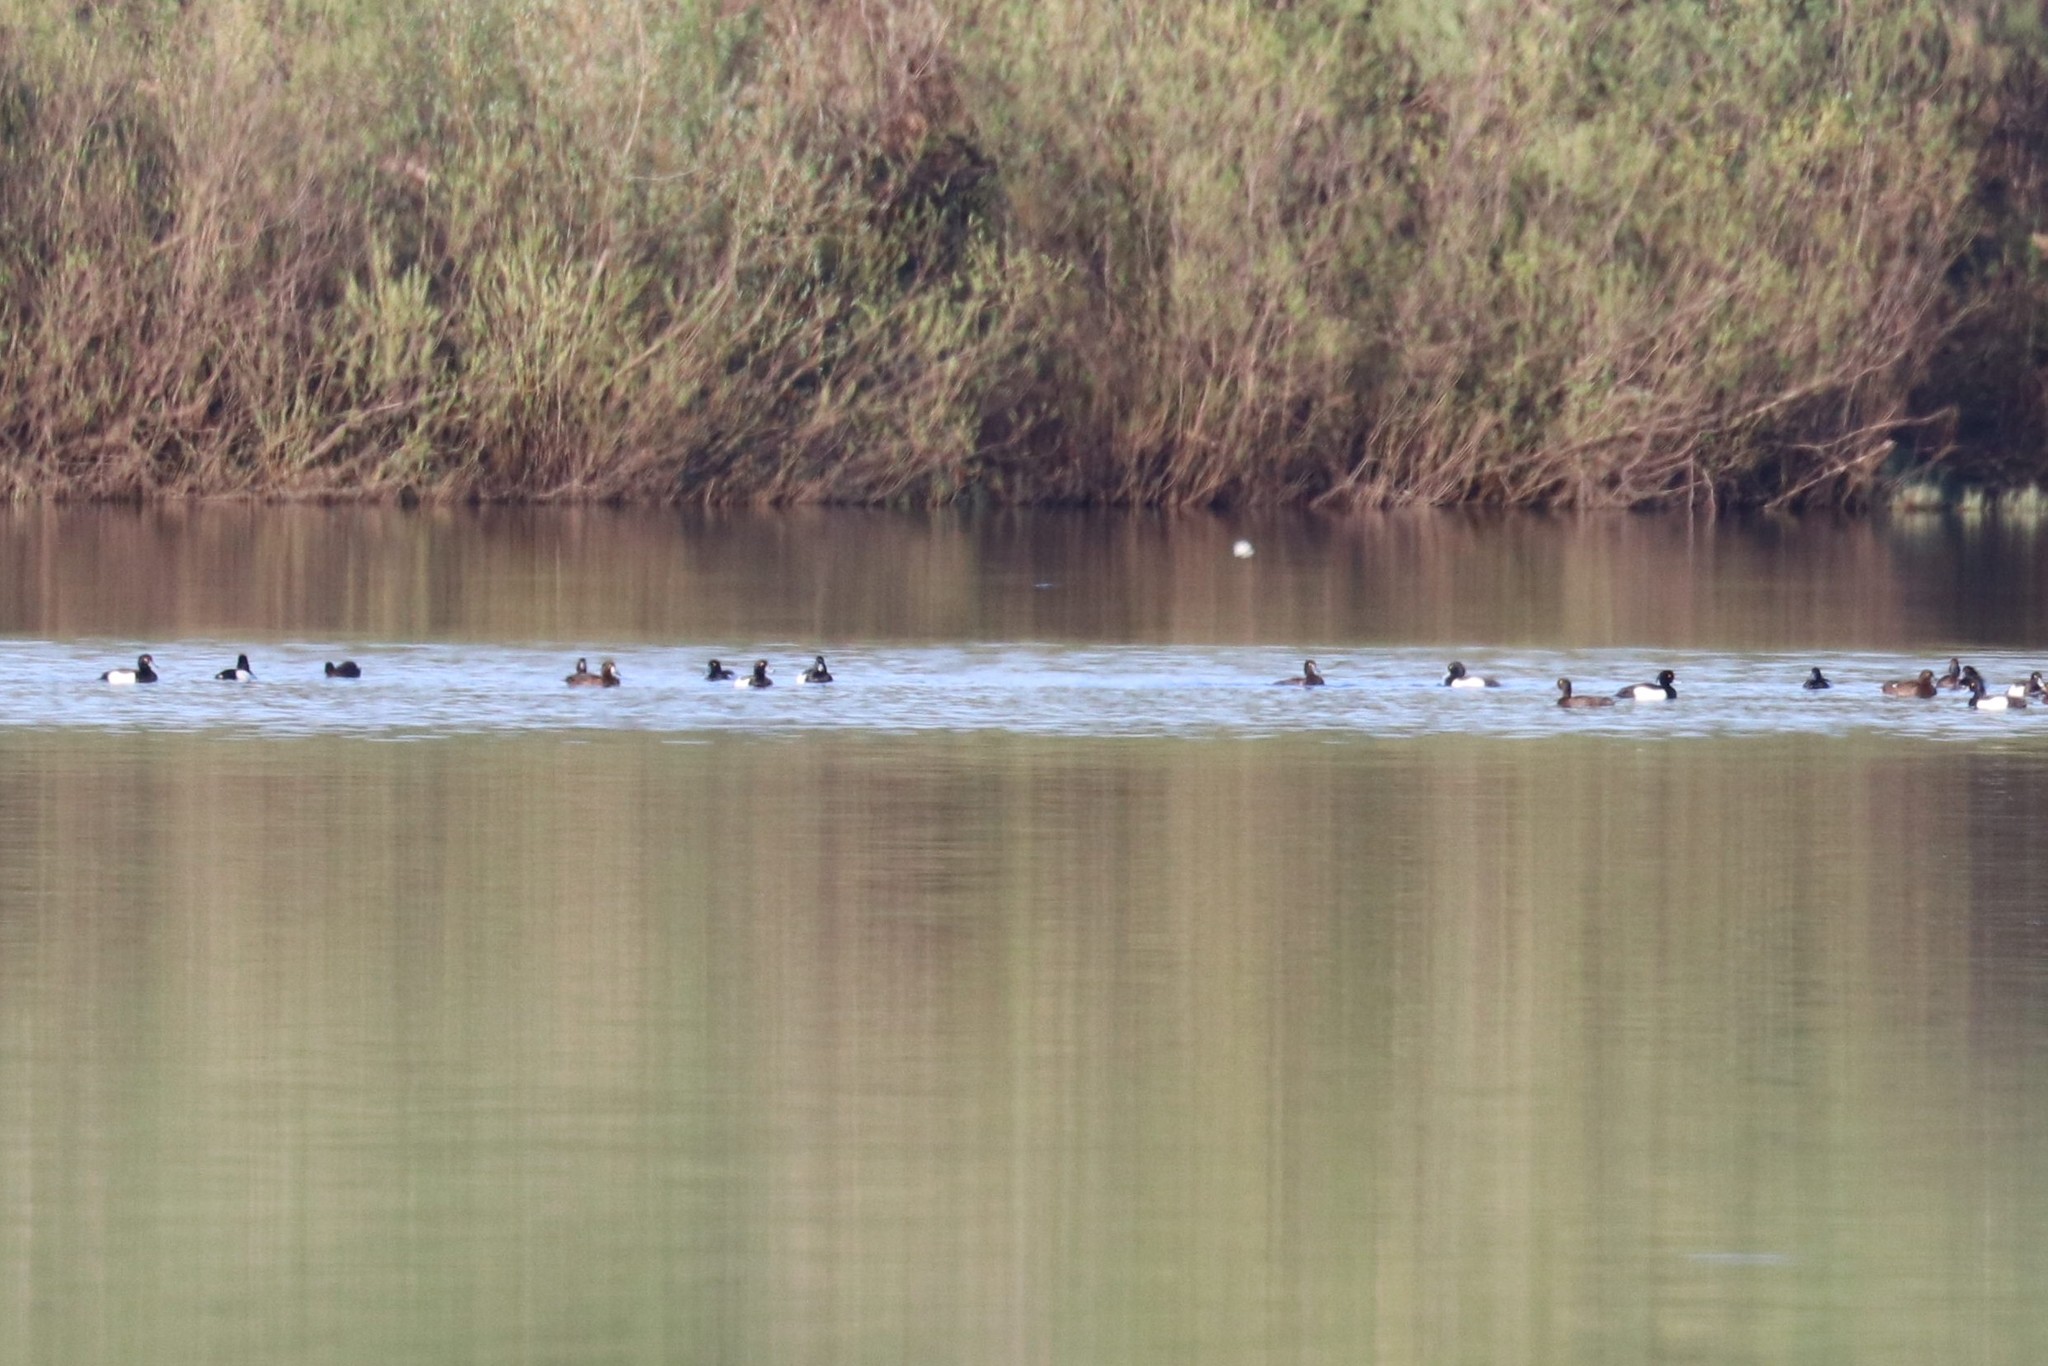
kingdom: Animalia
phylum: Chordata
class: Aves
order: Anseriformes
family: Anatidae
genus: Aythya
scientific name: Aythya fuligula
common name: Tufted duck
